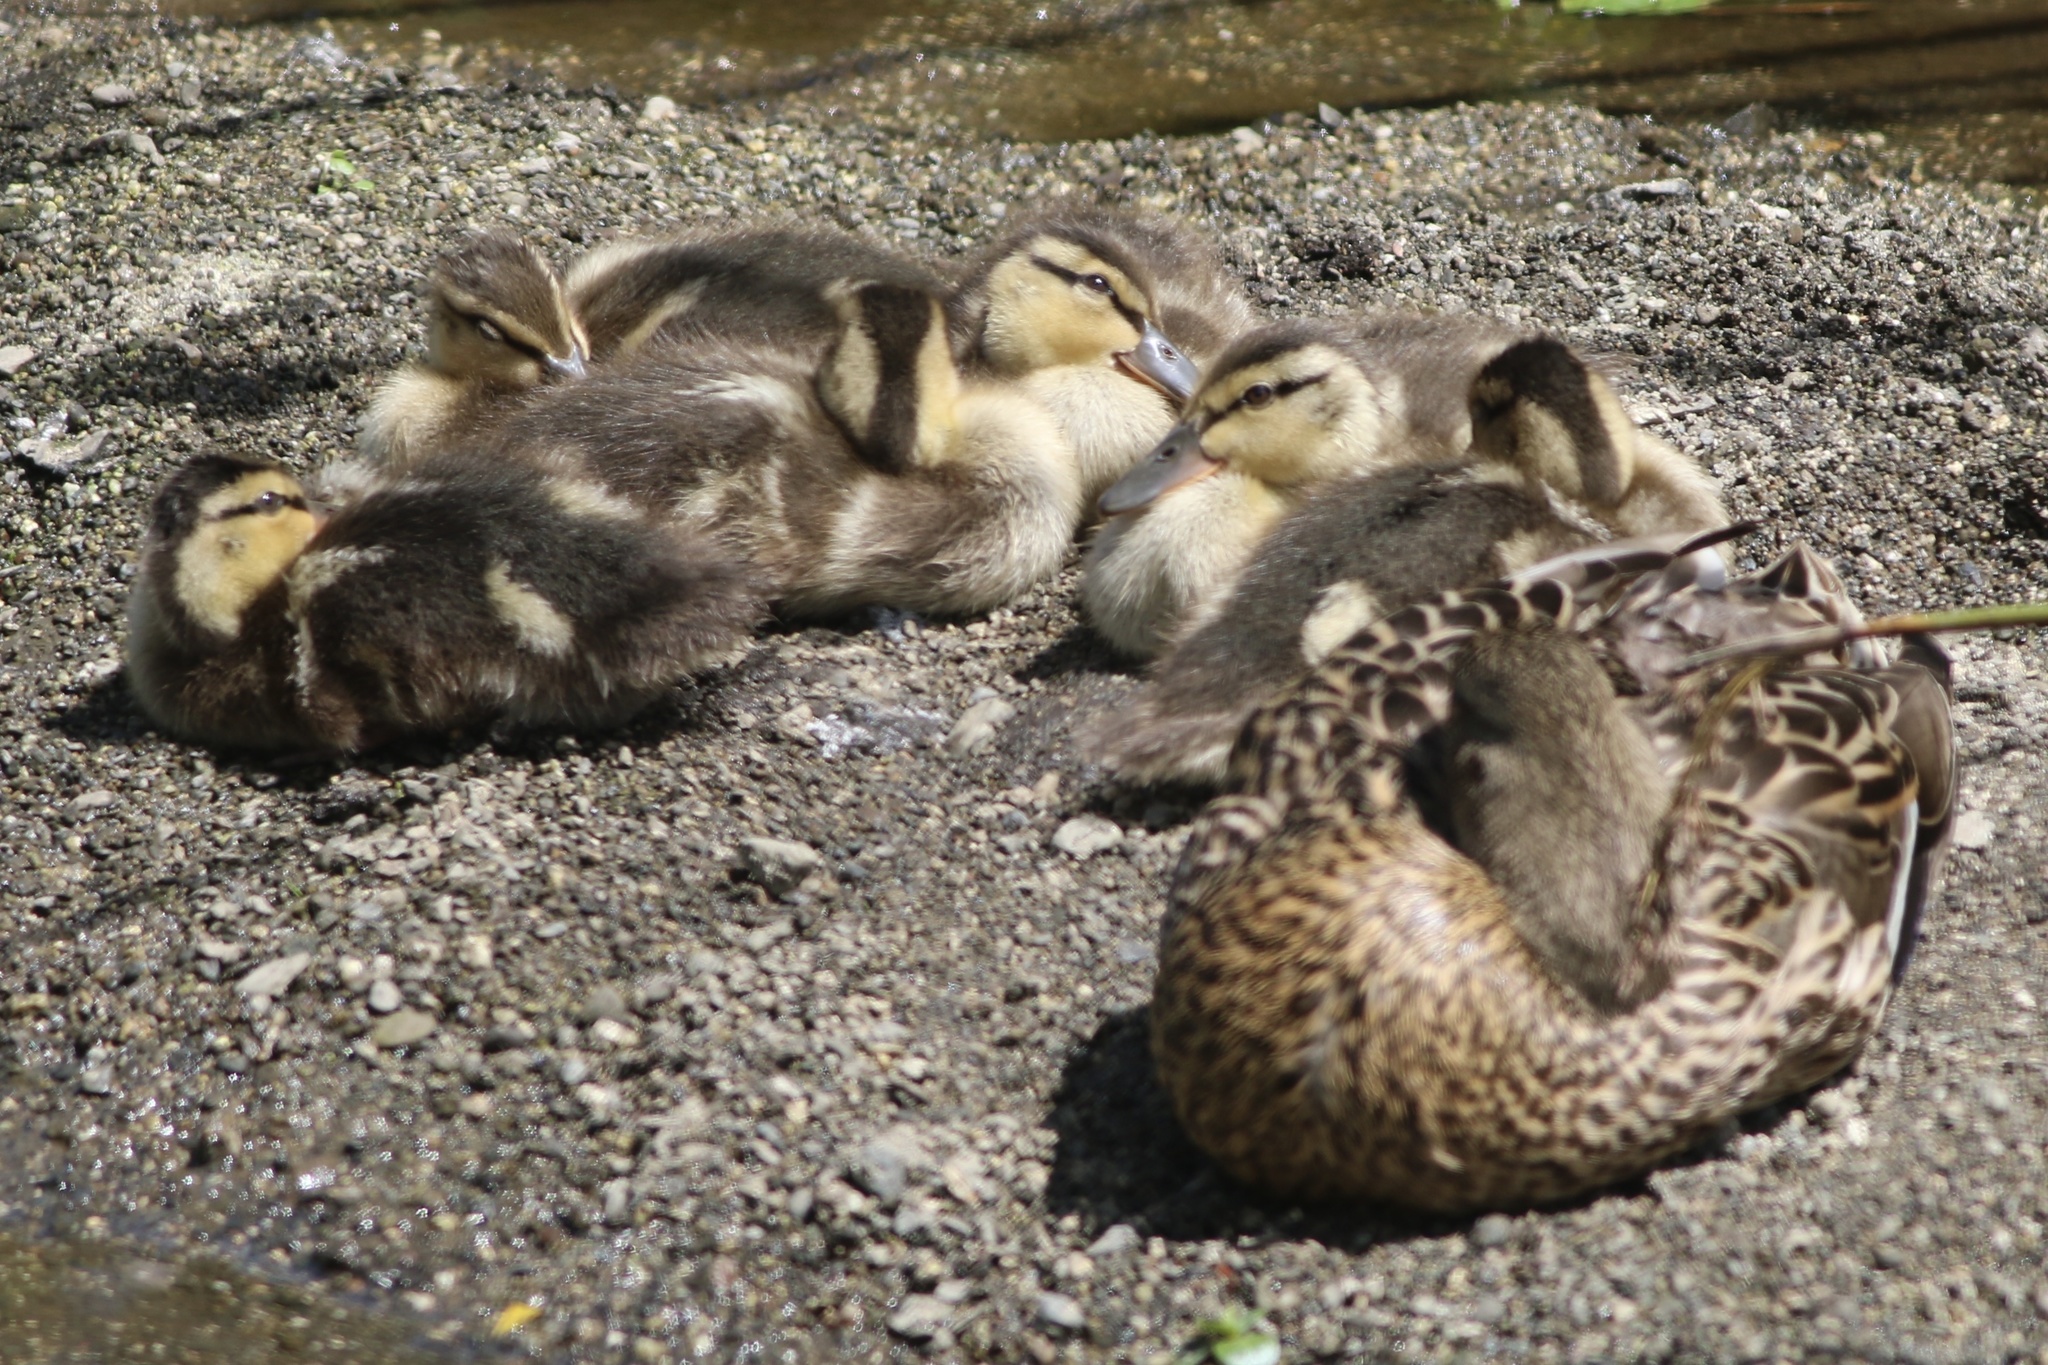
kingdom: Animalia
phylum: Chordata
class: Aves
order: Anseriformes
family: Anatidae
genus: Anas
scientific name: Anas platyrhynchos
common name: Mallard
